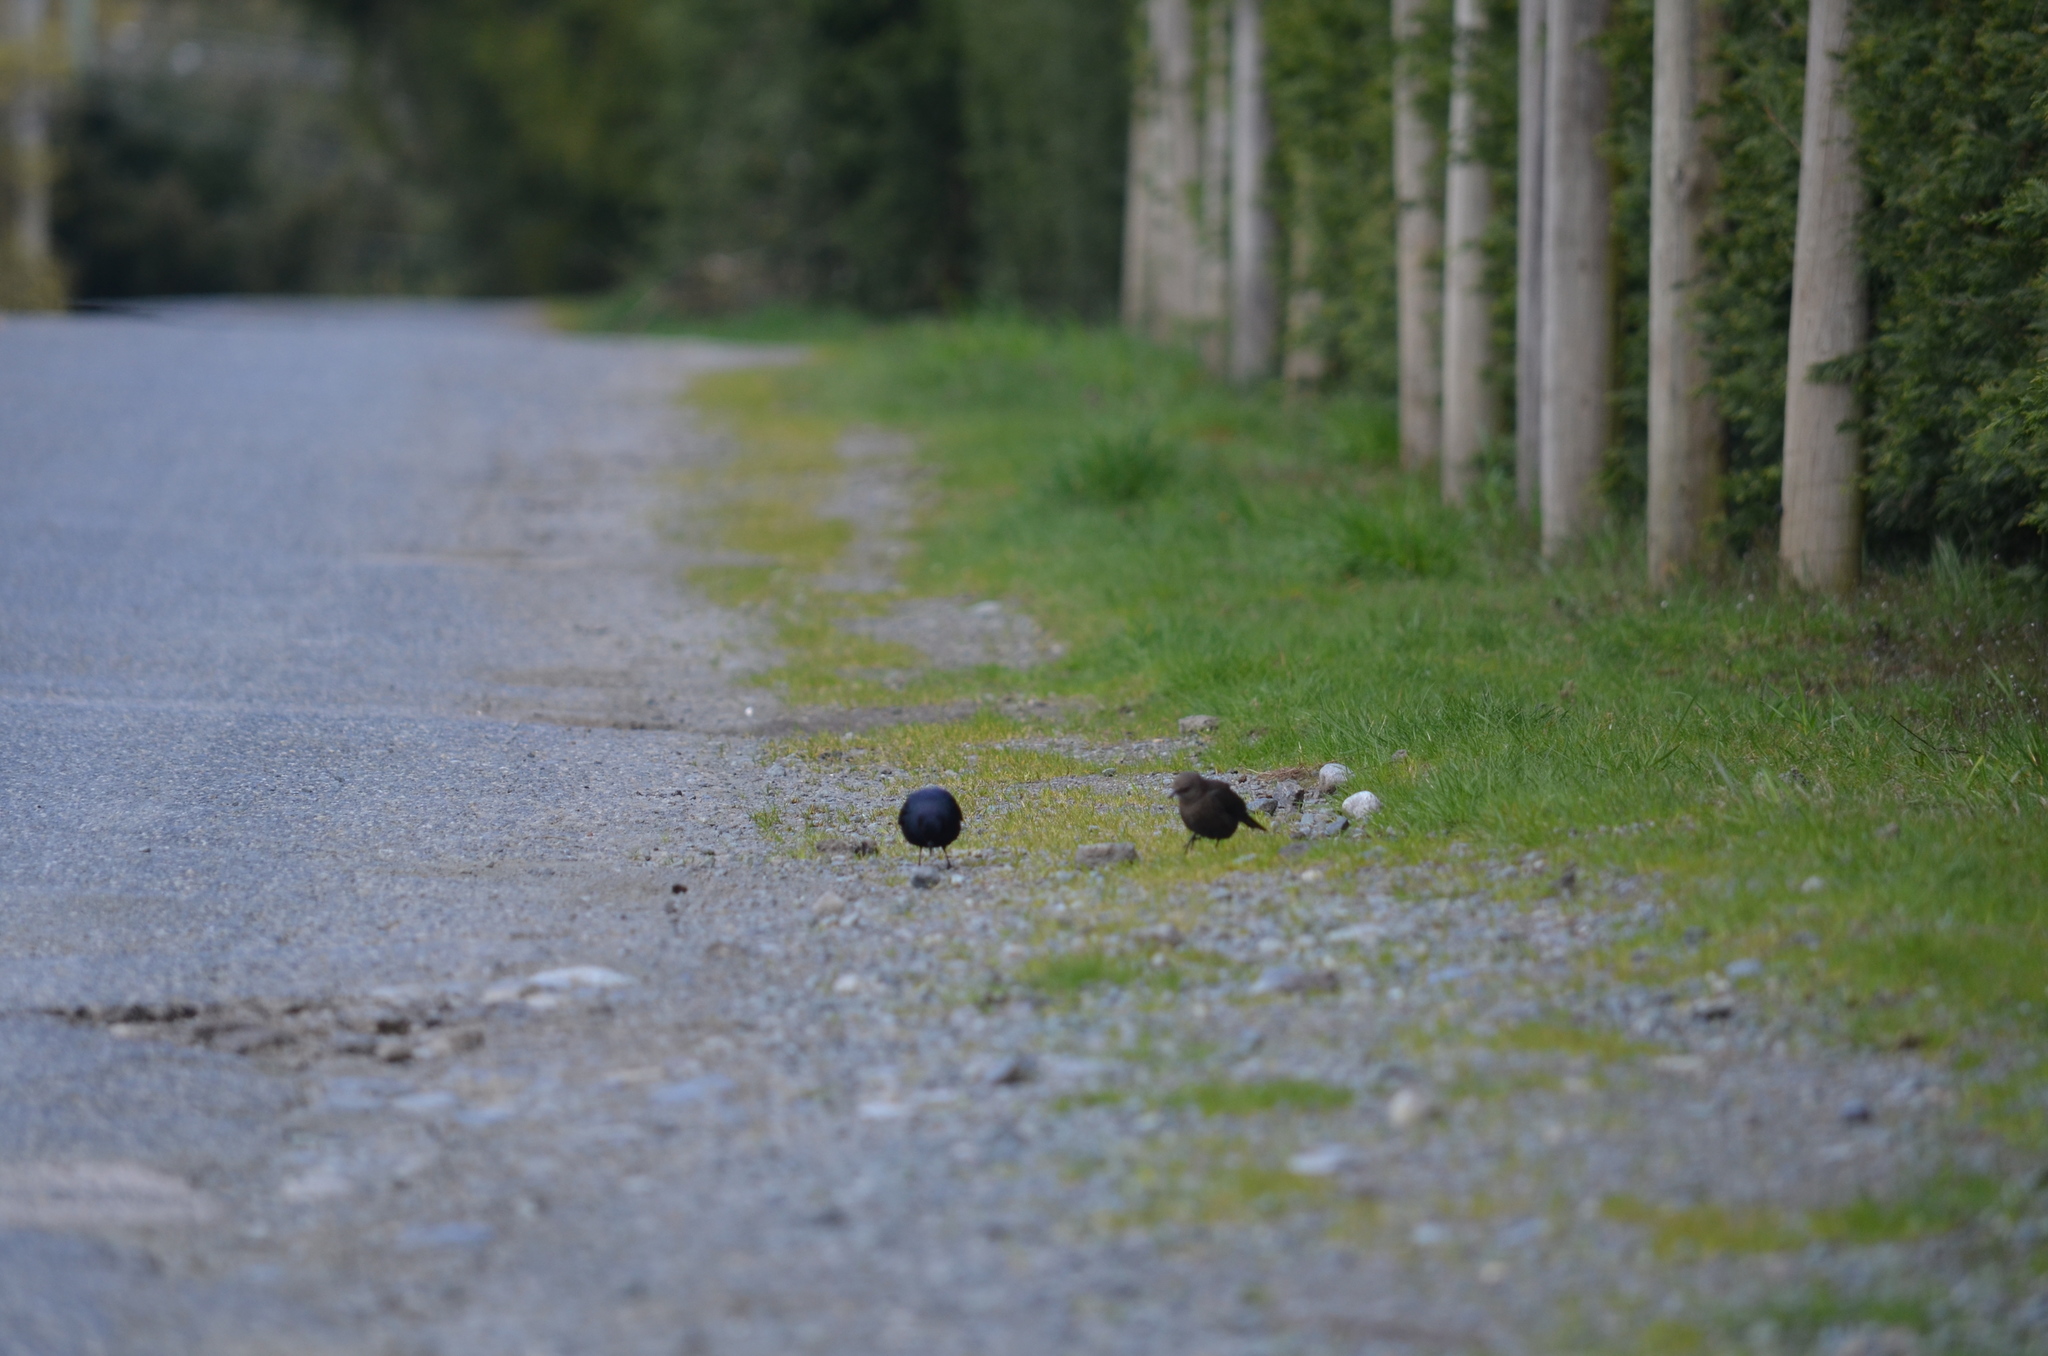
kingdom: Animalia
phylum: Chordata
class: Aves
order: Passeriformes
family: Icteridae
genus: Euphagus
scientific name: Euphagus cyanocephalus
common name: Brewer's blackbird
